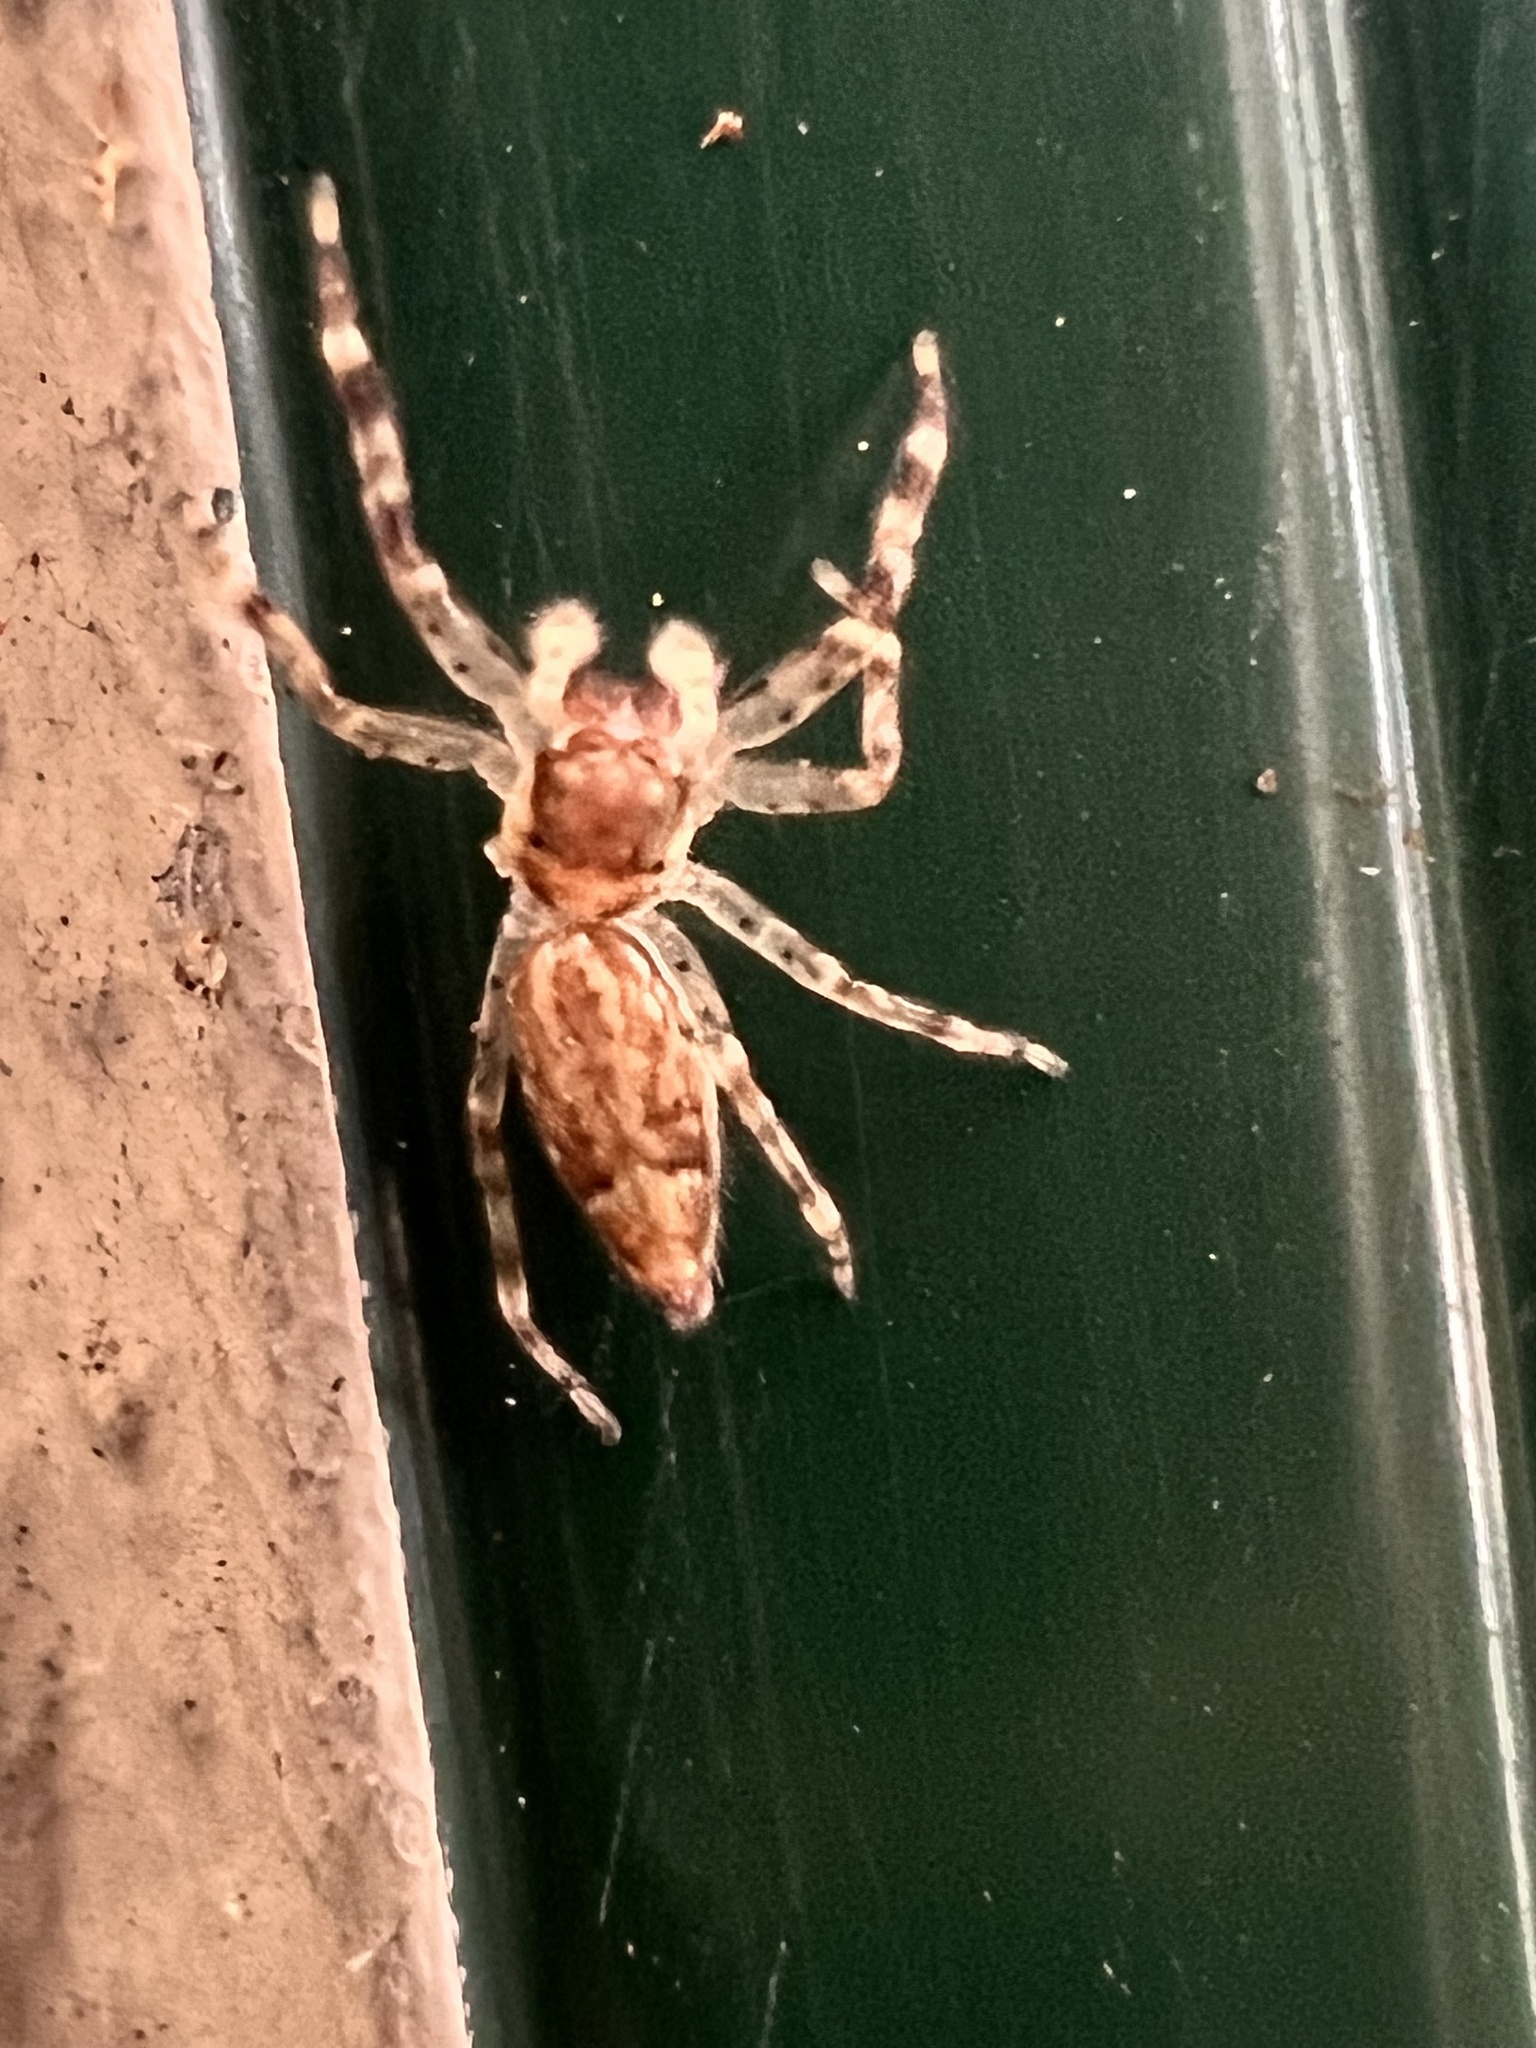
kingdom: Animalia
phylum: Arthropoda
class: Arachnida
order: Araneae
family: Salticidae
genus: Helpis
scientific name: Helpis minitabunda
